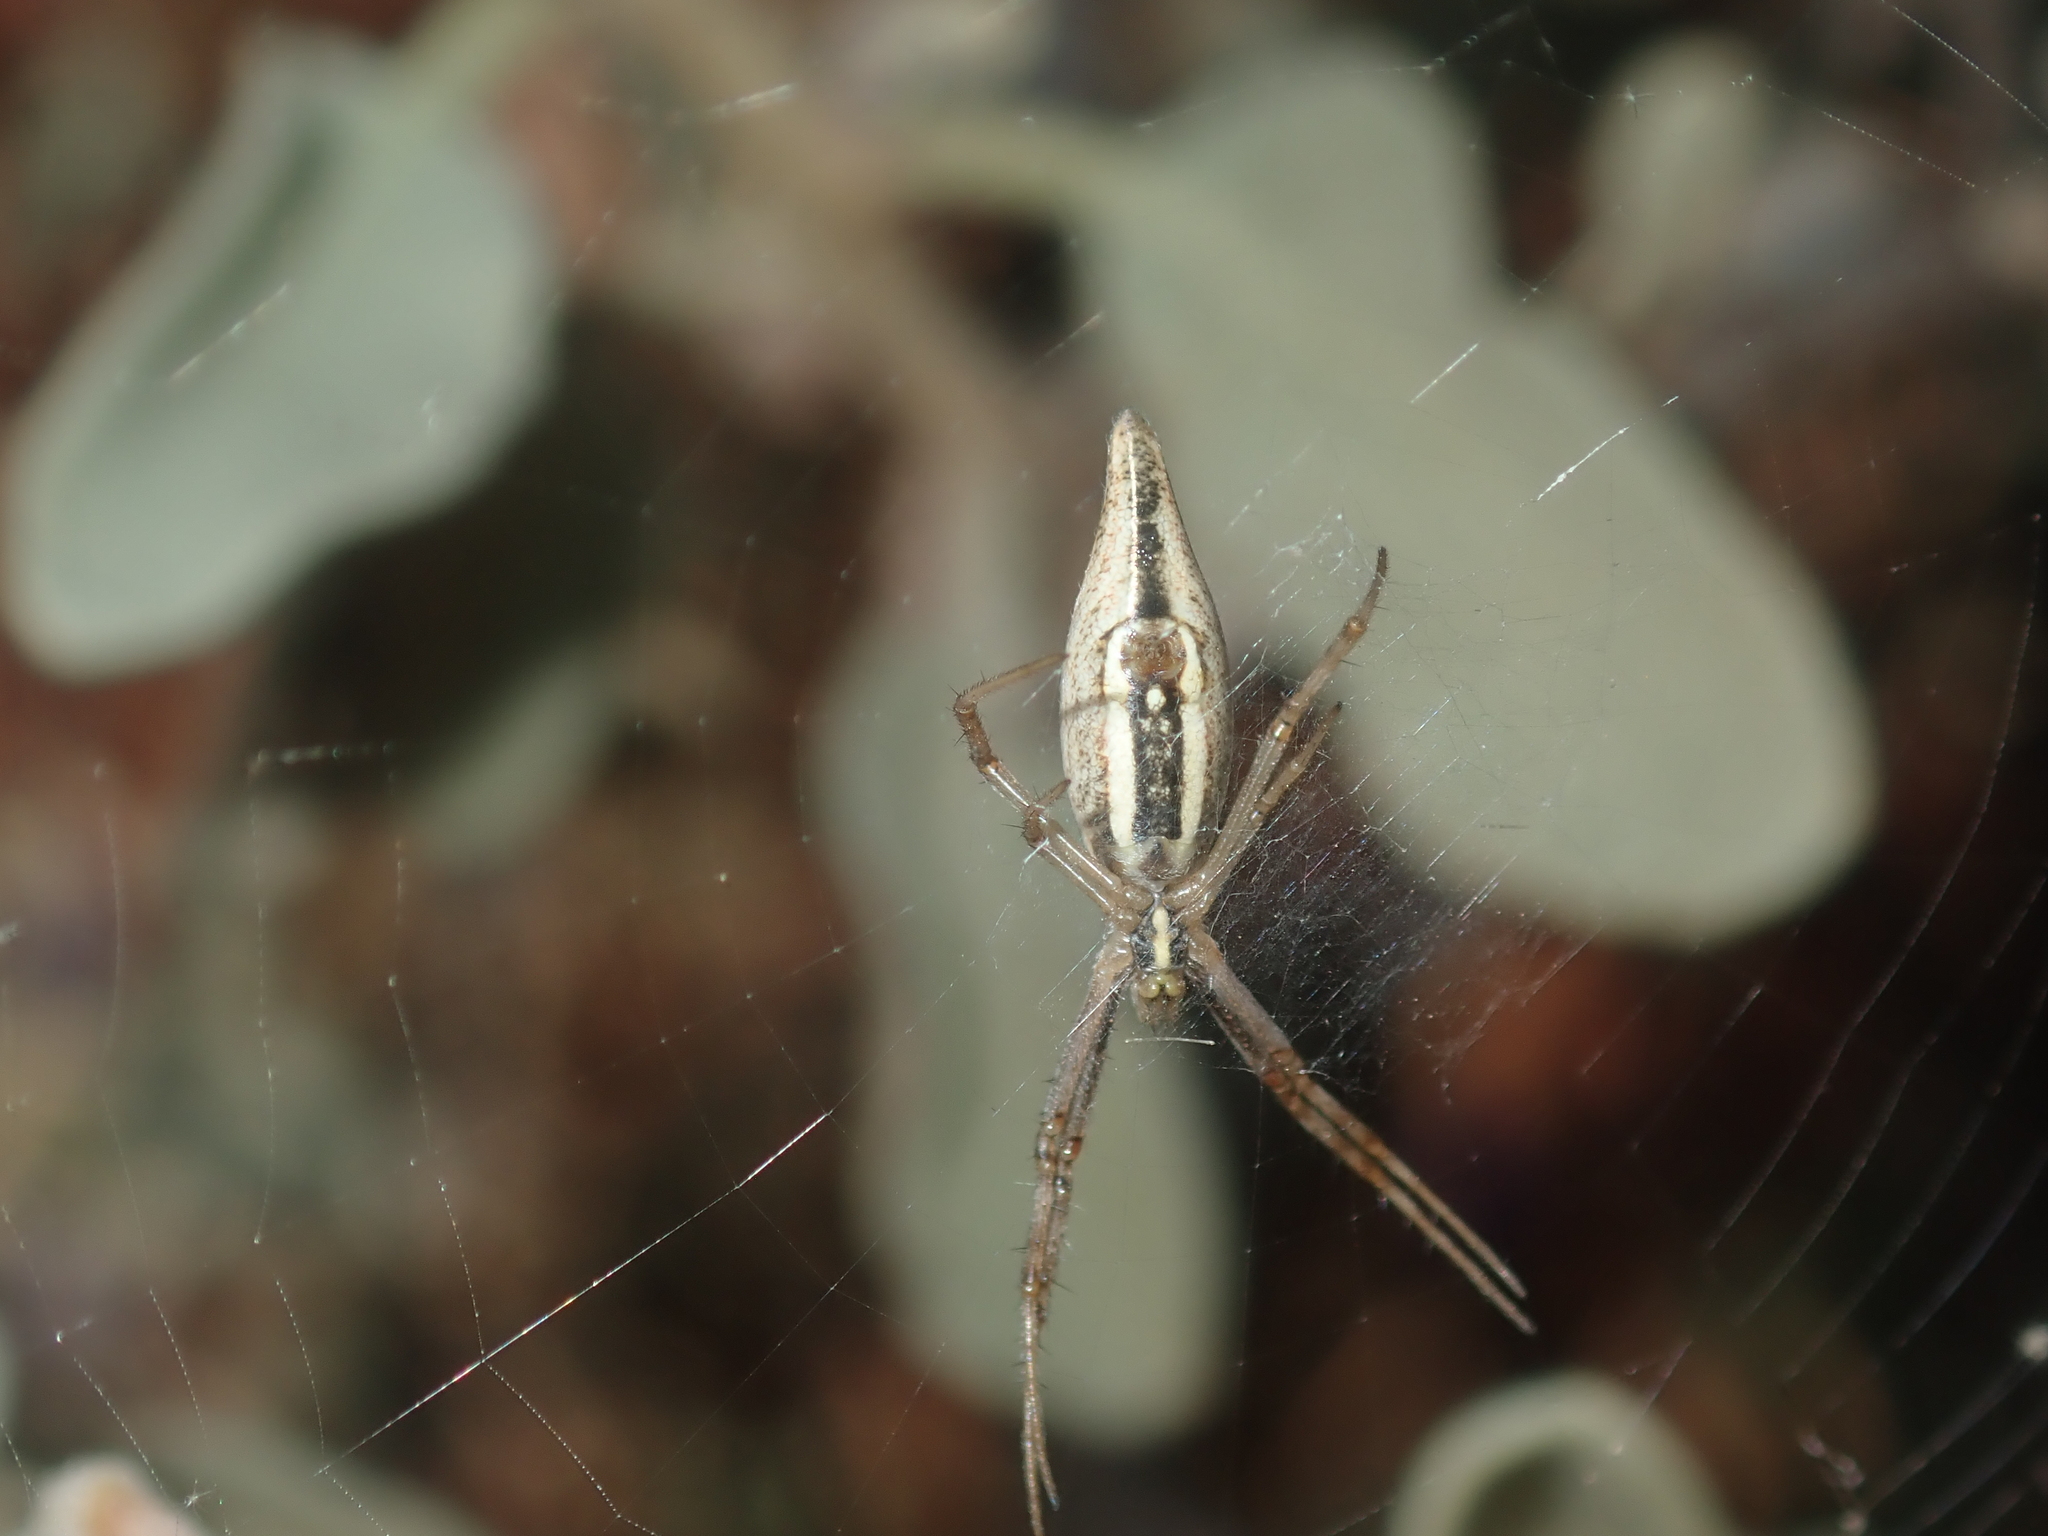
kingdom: Animalia
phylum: Arthropoda
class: Arachnida
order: Araneae
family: Araneidae
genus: Argiope
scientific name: Argiope protensa
